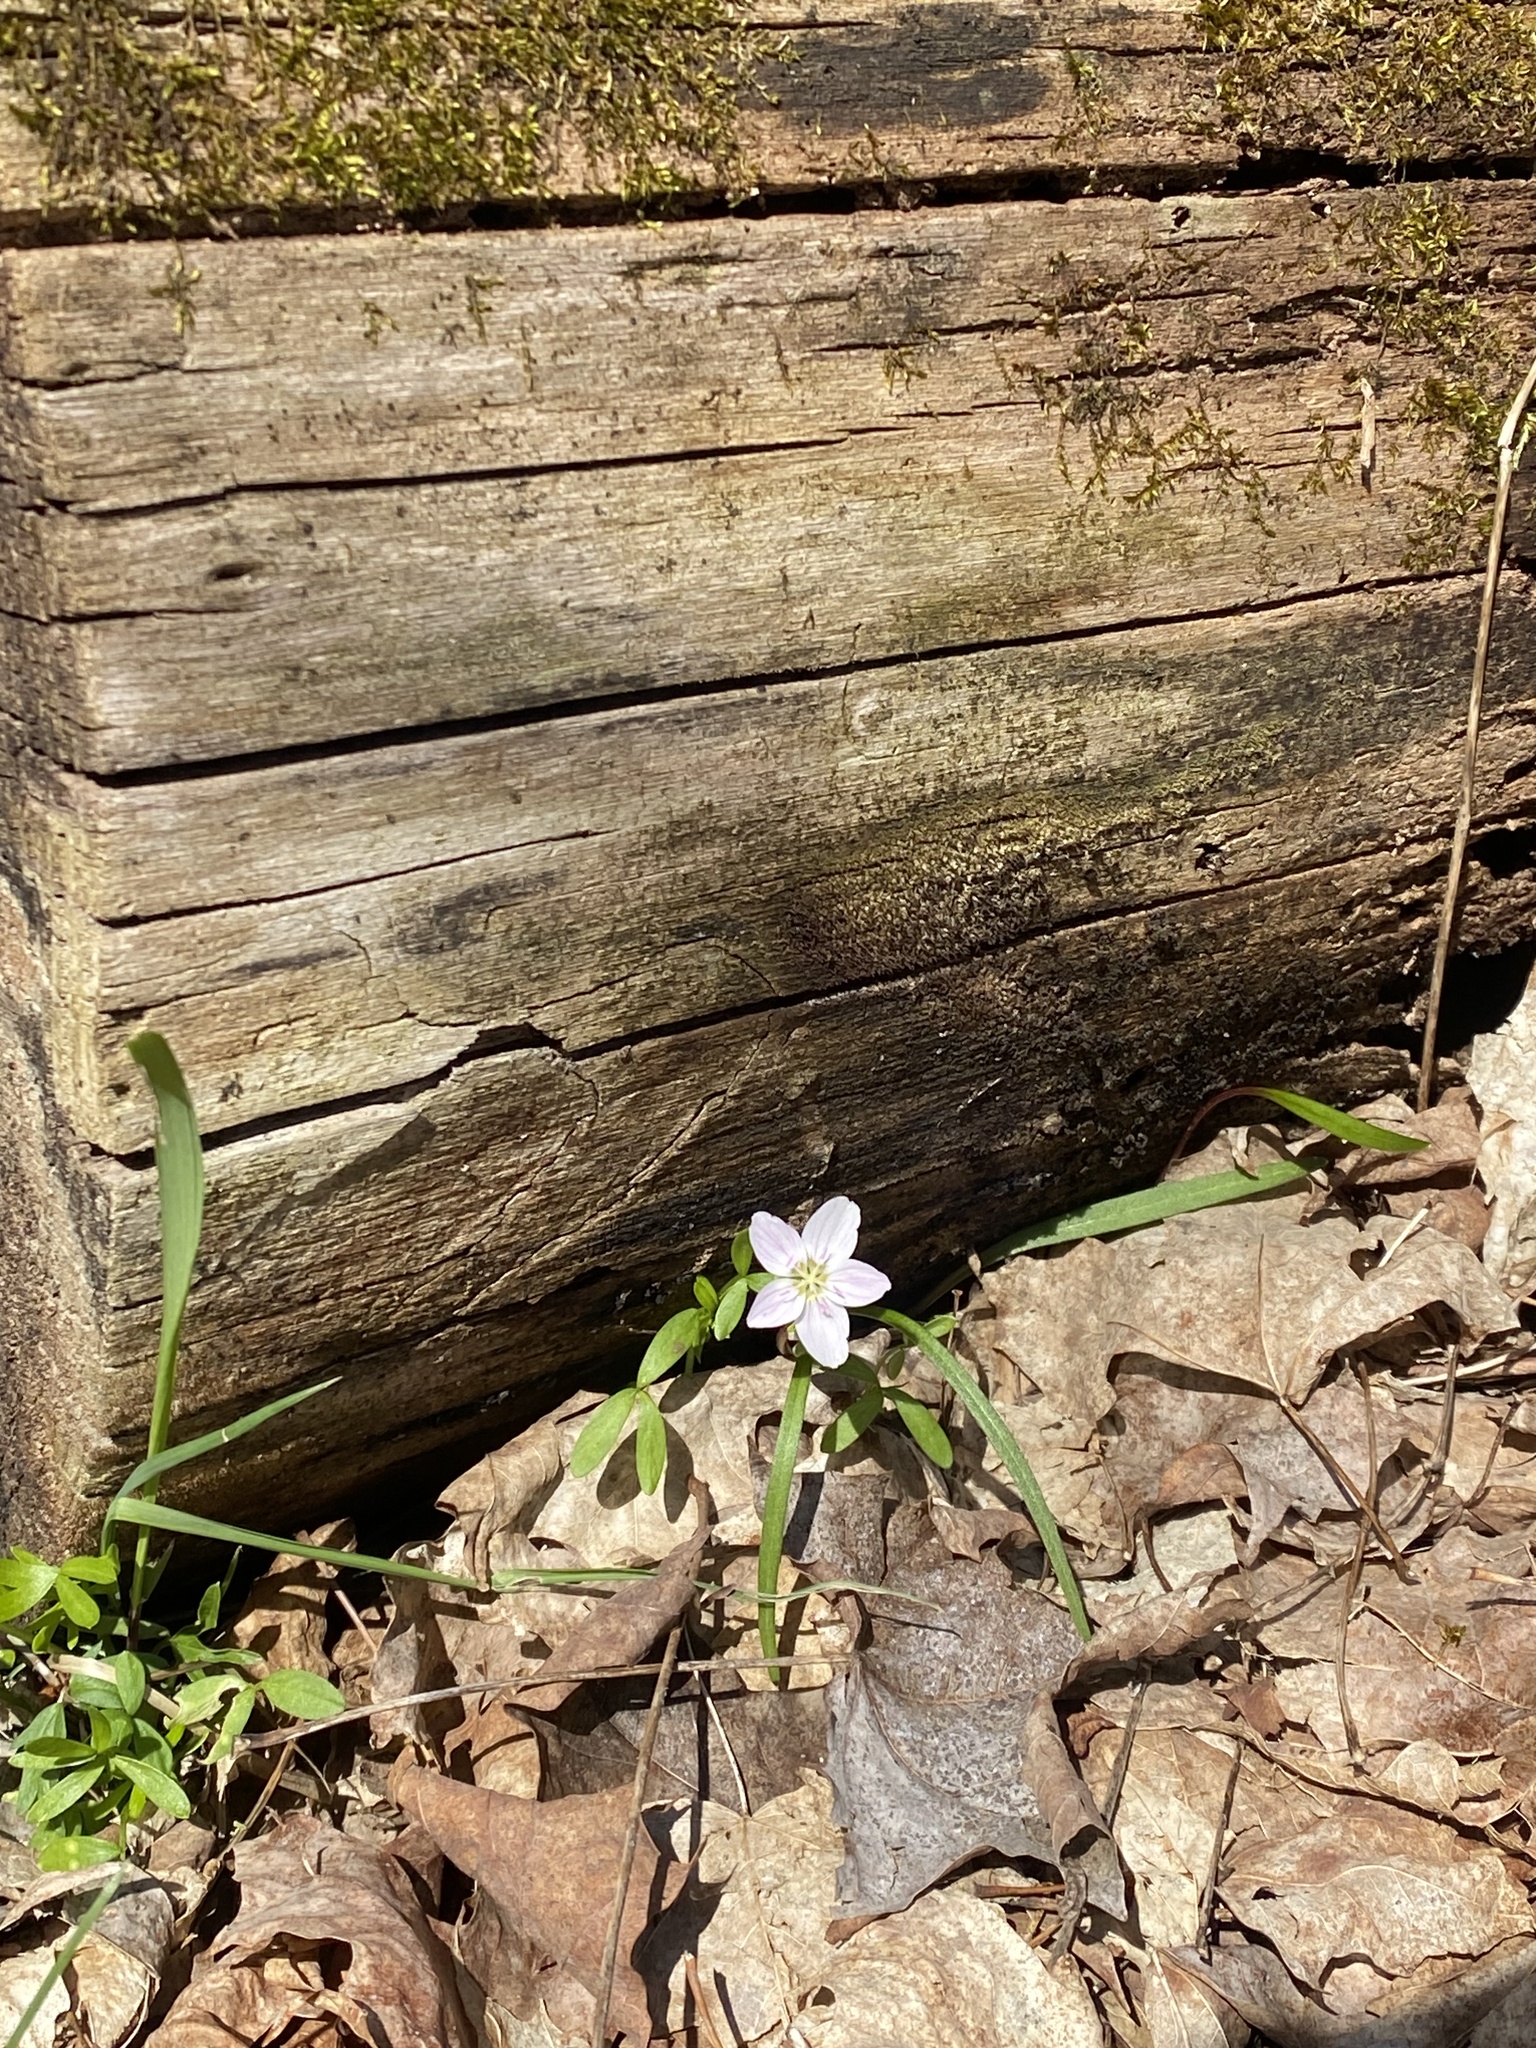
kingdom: Plantae
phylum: Tracheophyta
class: Magnoliopsida
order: Caryophyllales
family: Montiaceae
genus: Claytonia
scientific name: Claytonia virginica
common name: Virginia springbeauty
